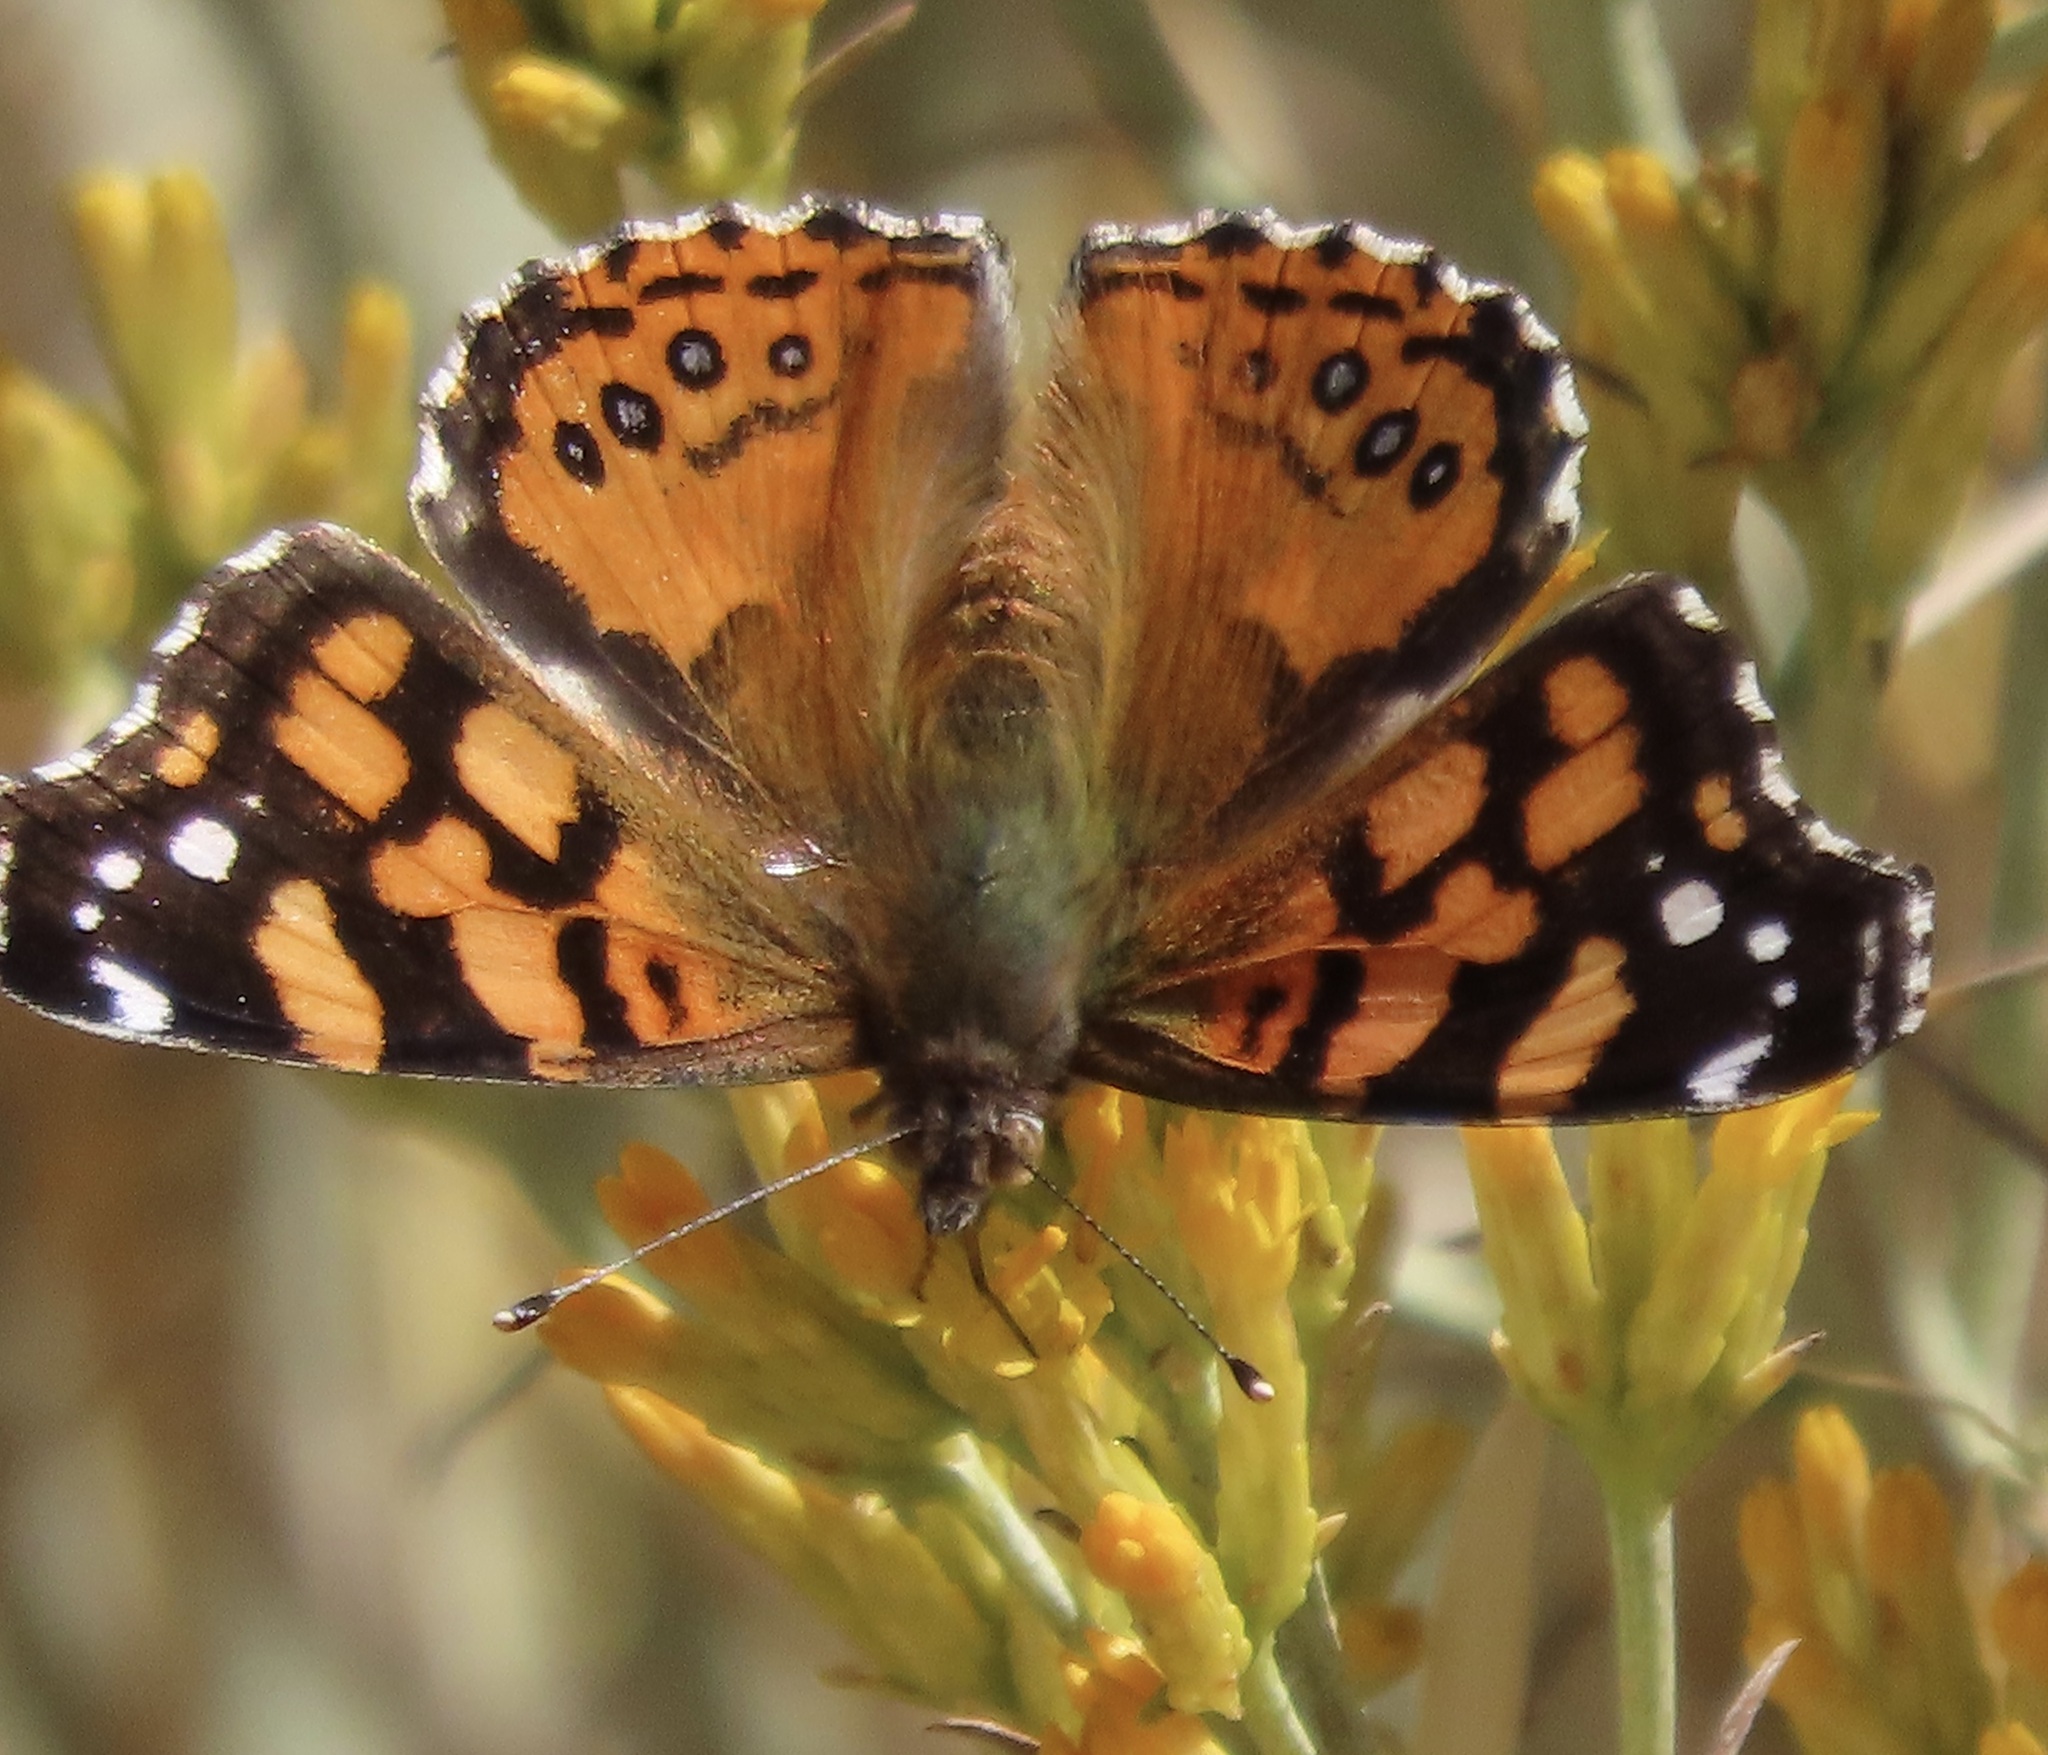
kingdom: Animalia
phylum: Arthropoda
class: Insecta
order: Lepidoptera
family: Nymphalidae
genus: Vanessa
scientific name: Vanessa annabella
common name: West coast lady
